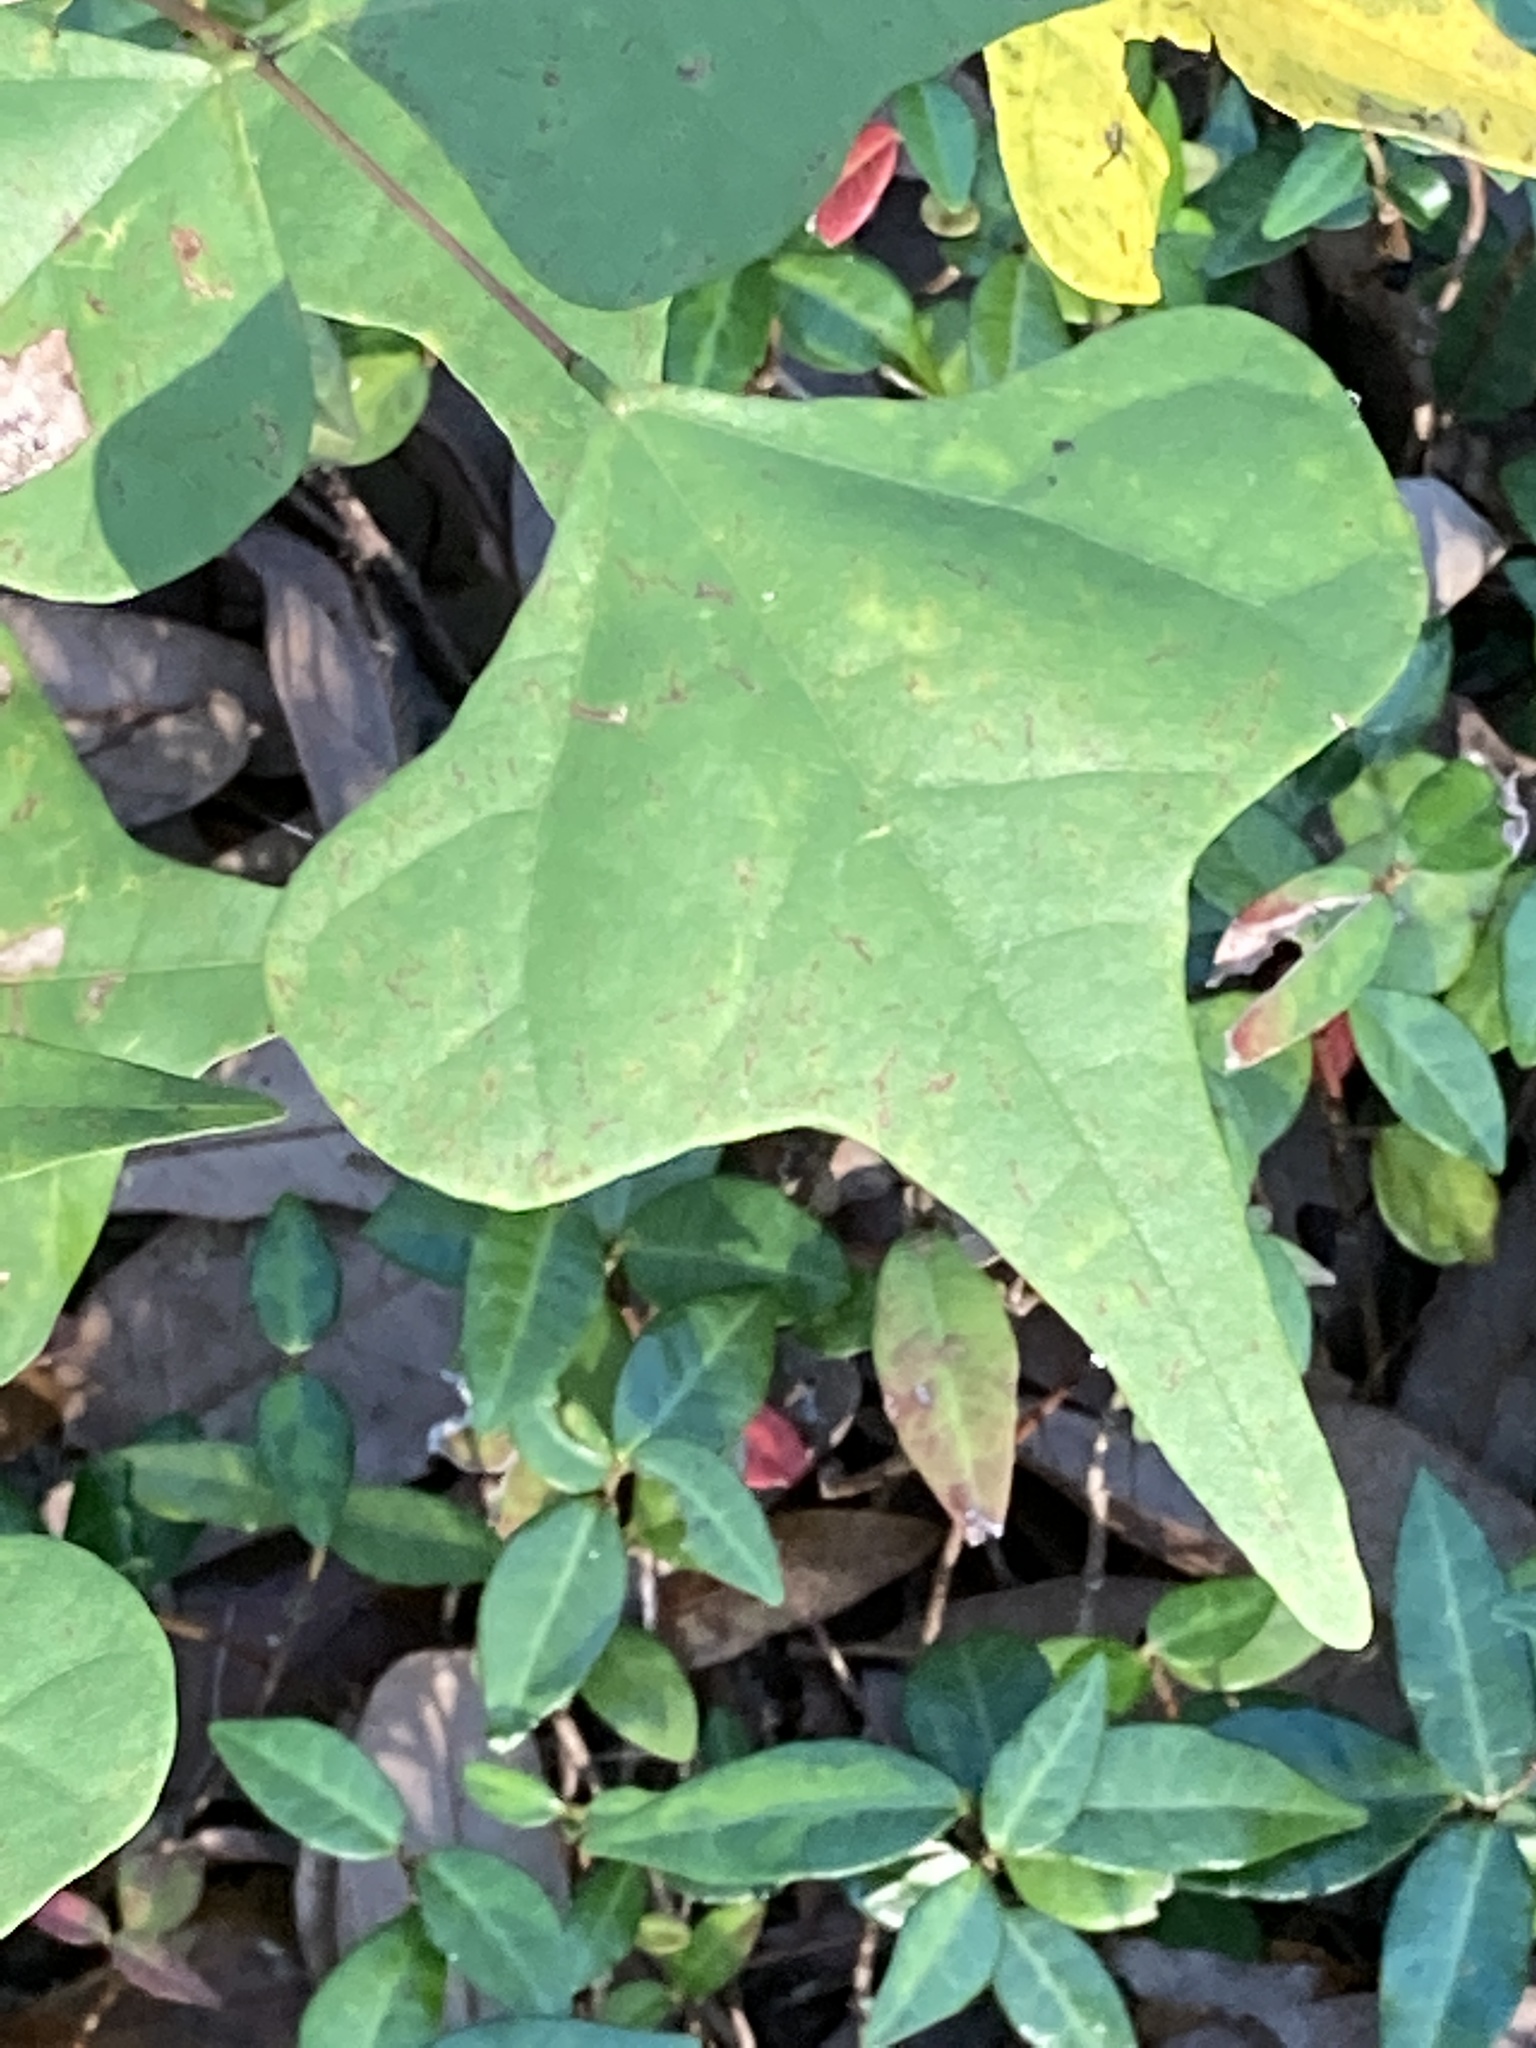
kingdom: Plantae
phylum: Tracheophyta
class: Magnoliopsida
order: Fabales
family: Fabaceae
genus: Erythrina
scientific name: Erythrina herbacea
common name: Coral-bean
